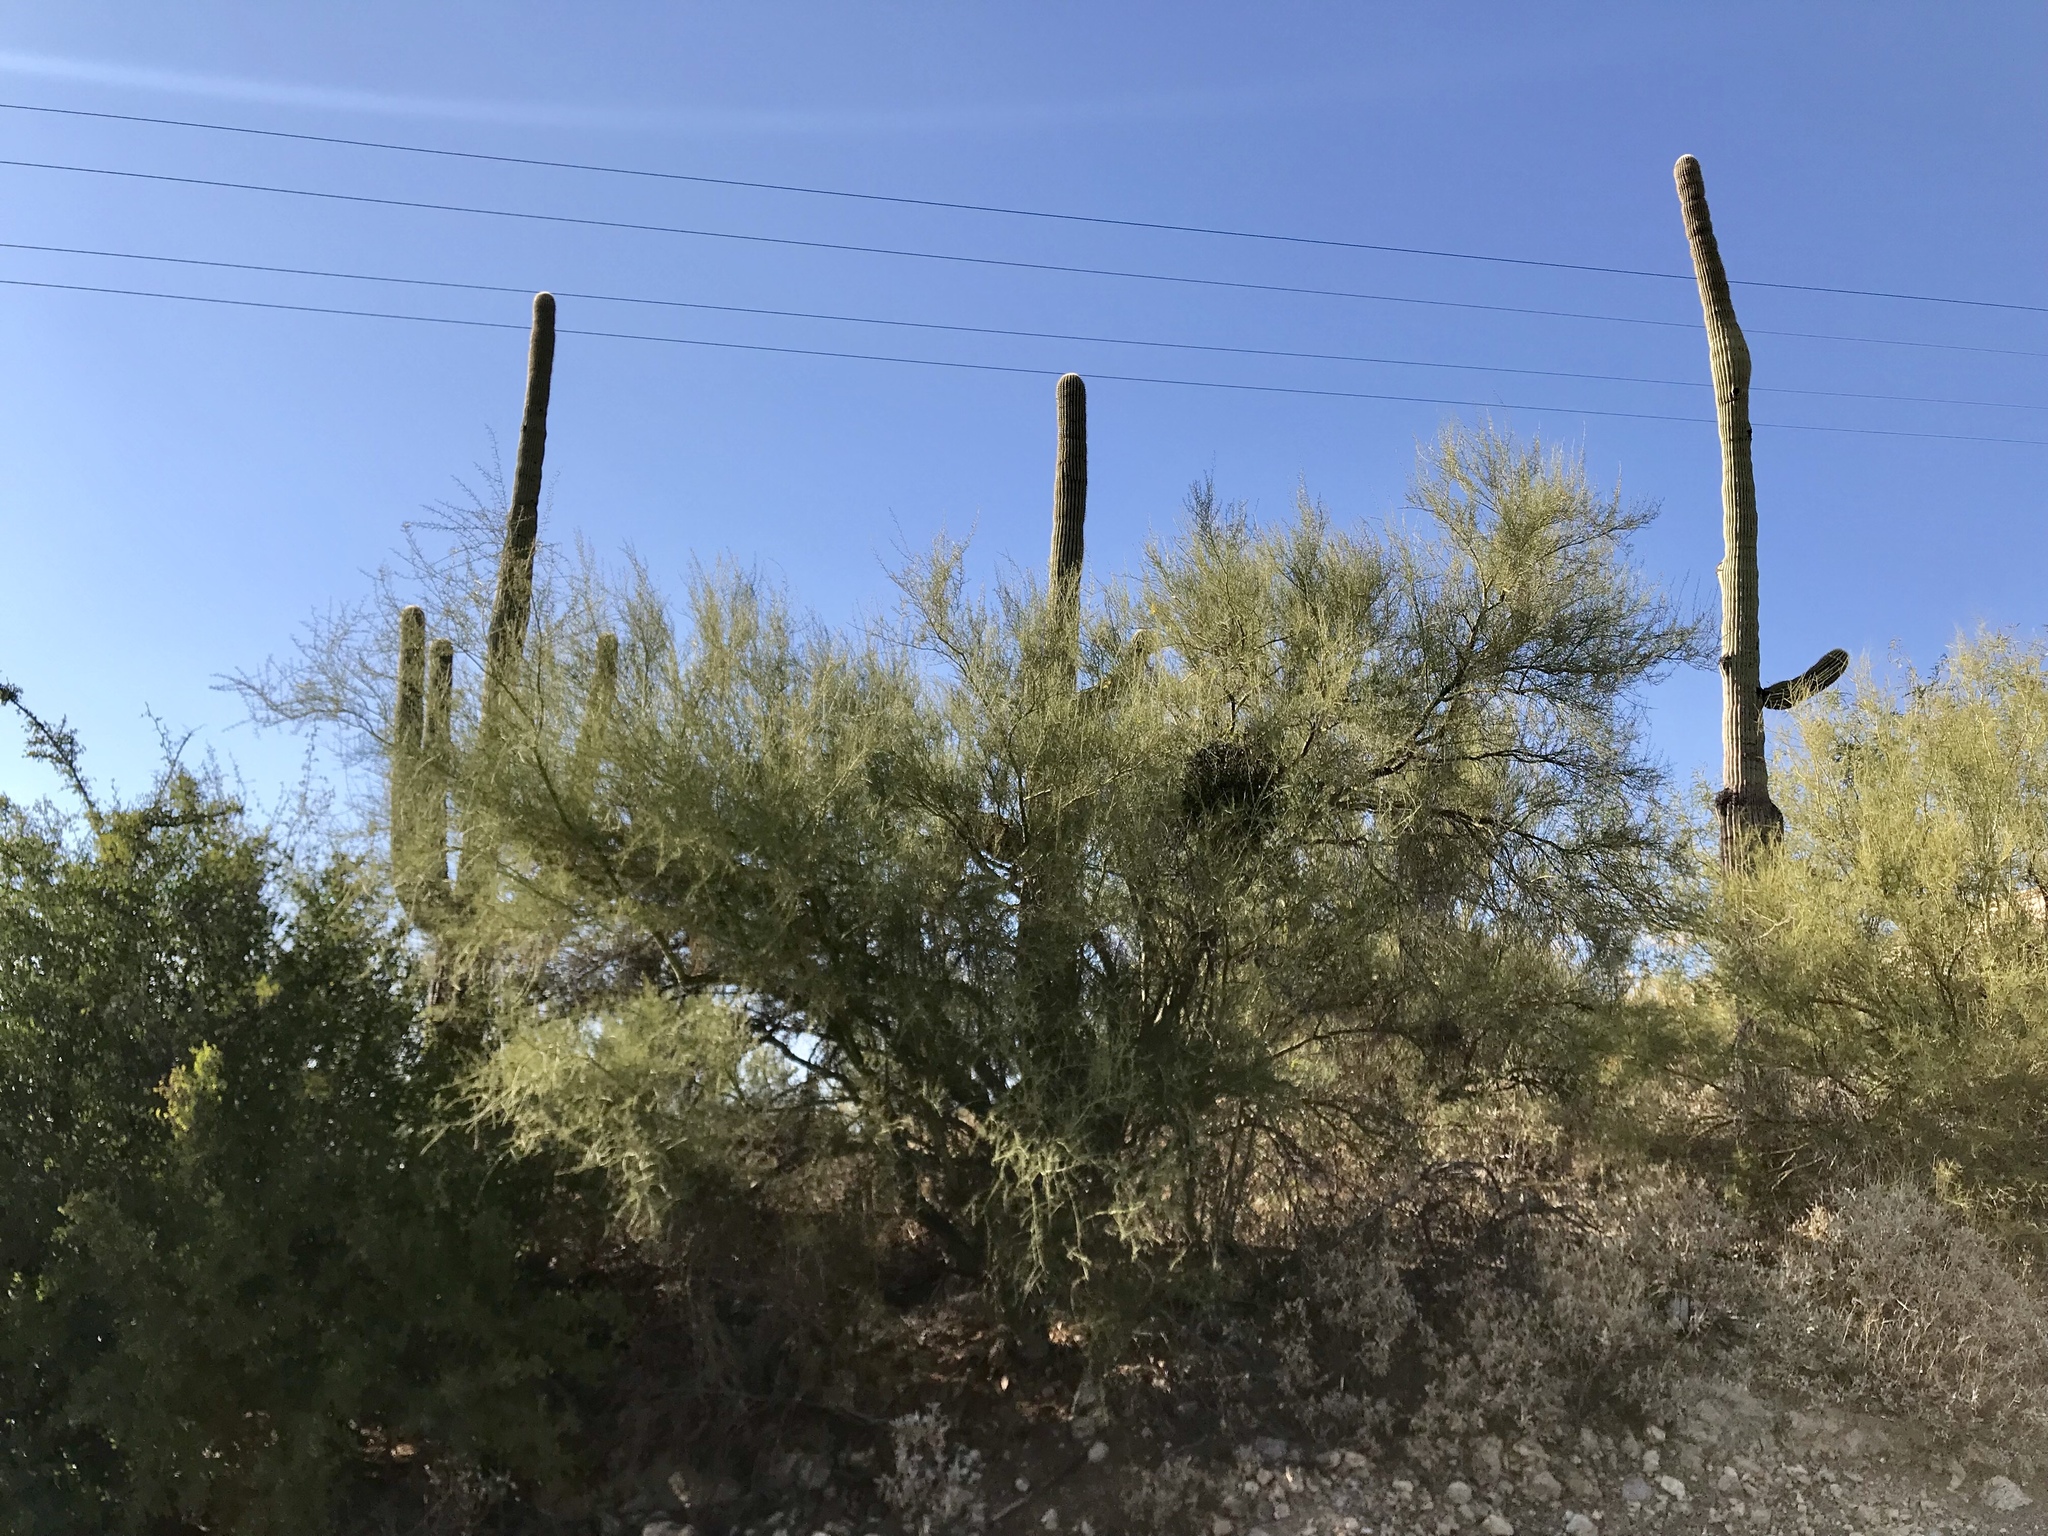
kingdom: Plantae
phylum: Tracheophyta
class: Magnoliopsida
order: Fabales
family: Fabaceae
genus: Parkinsonia
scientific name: Parkinsonia microphylla
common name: Yellow paloverde
